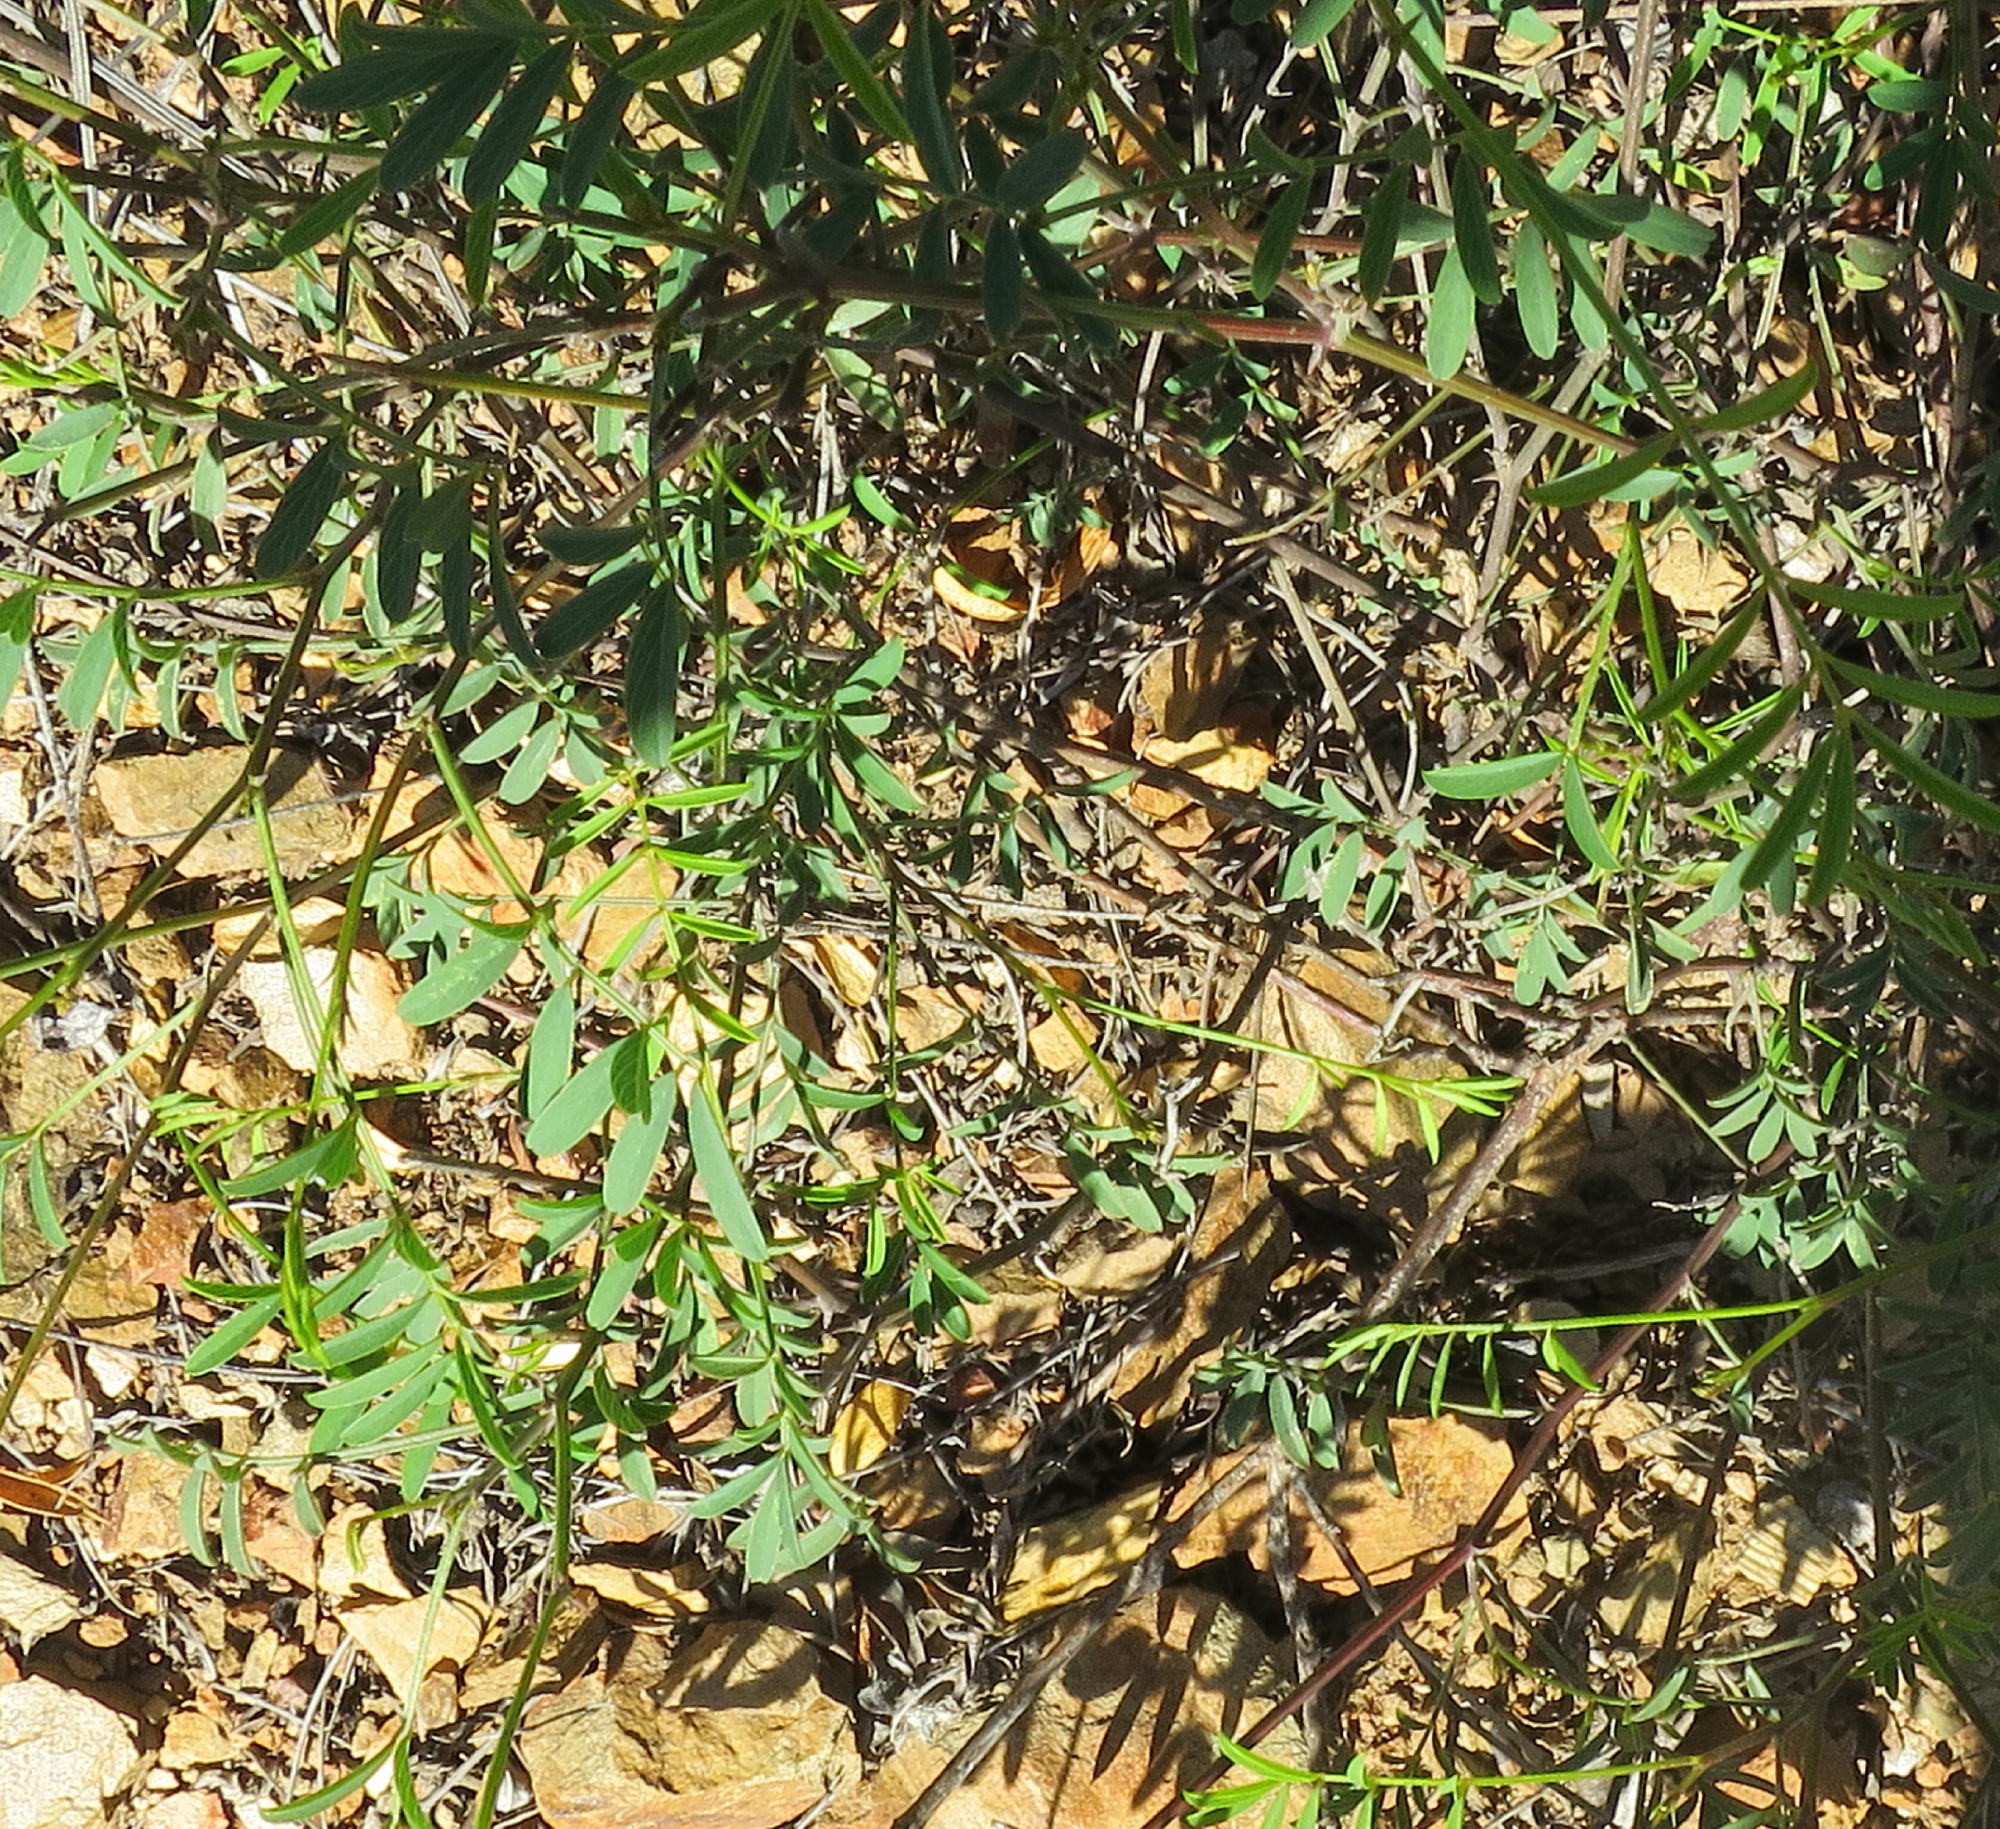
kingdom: Plantae
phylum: Tracheophyta
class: Magnoliopsida
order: Fabales
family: Fabaceae
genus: Tephrosia
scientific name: Tephrosia capensis
